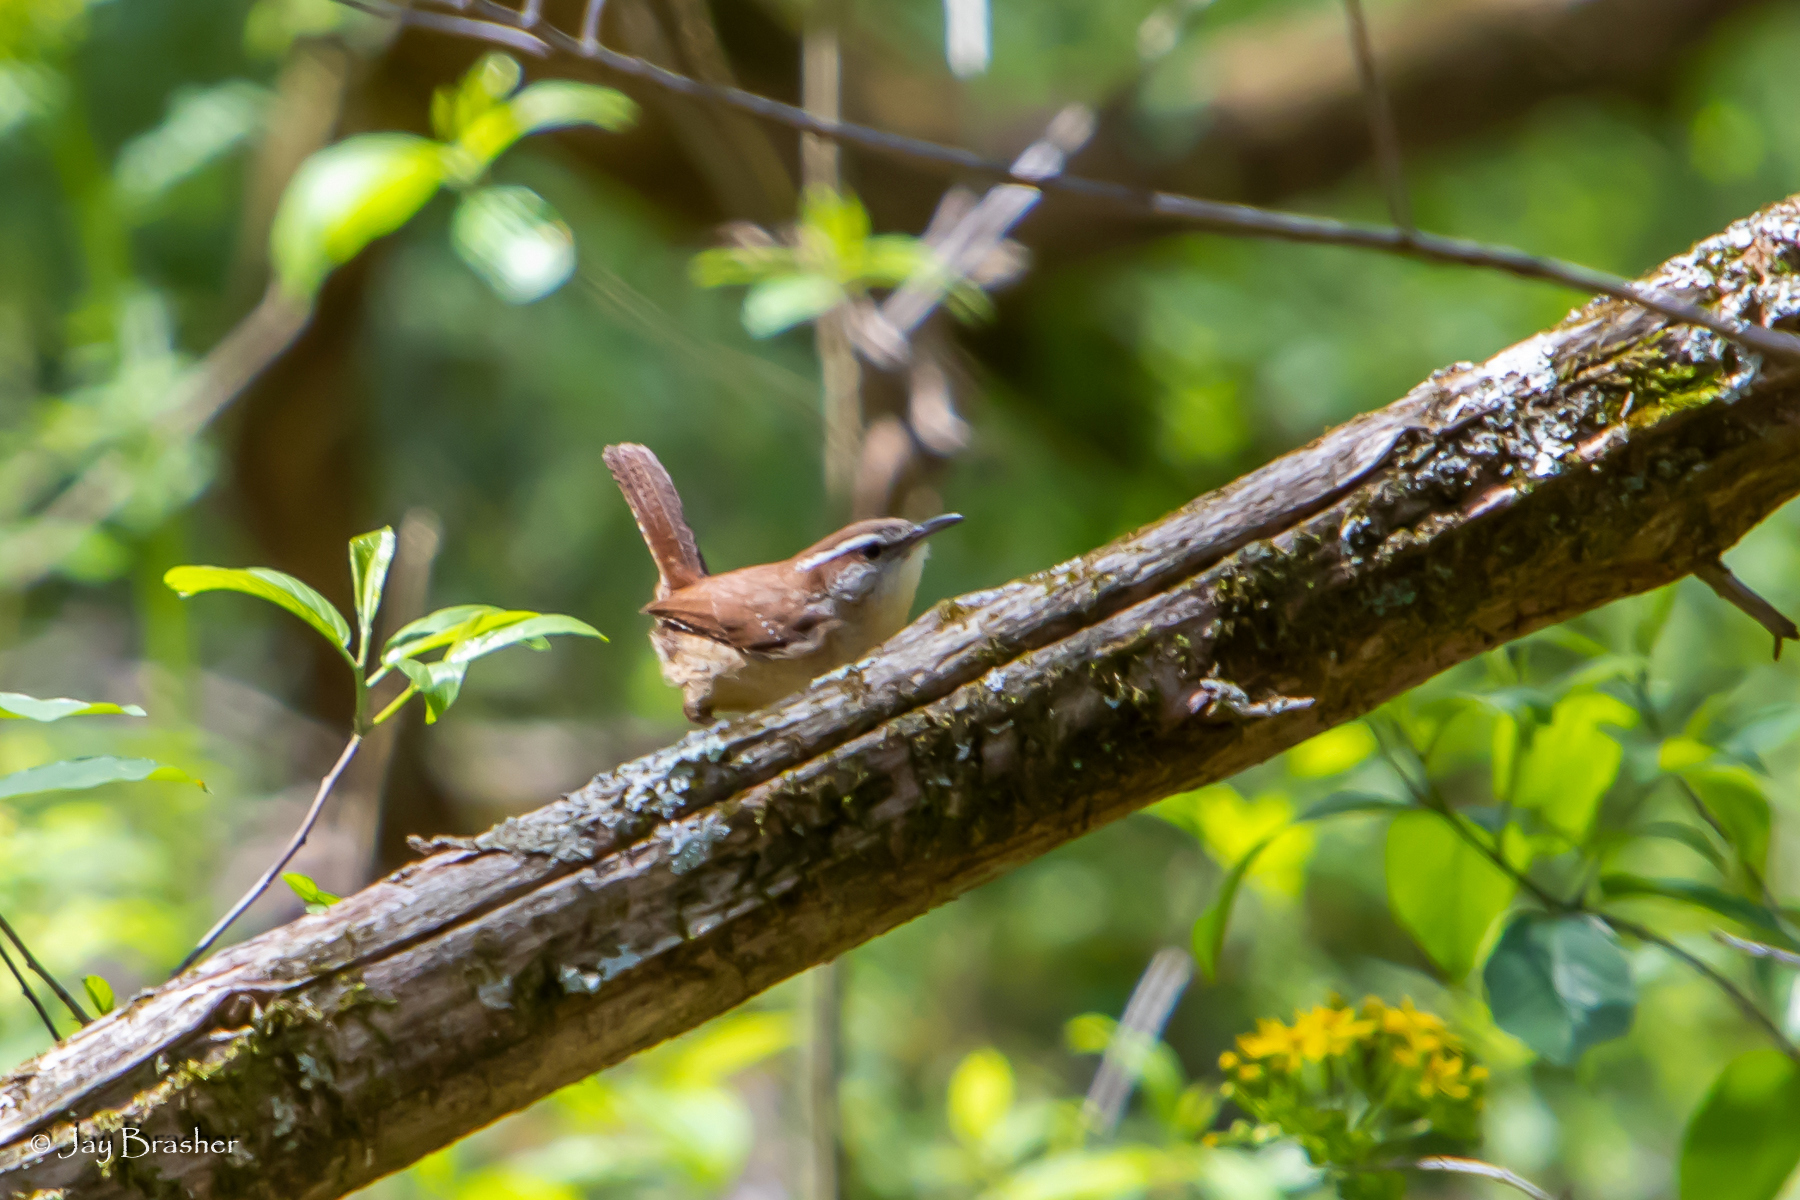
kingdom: Animalia
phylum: Chordata
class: Aves
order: Passeriformes
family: Troglodytidae
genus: Thryothorus
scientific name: Thryothorus ludovicianus
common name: Carolina wren
